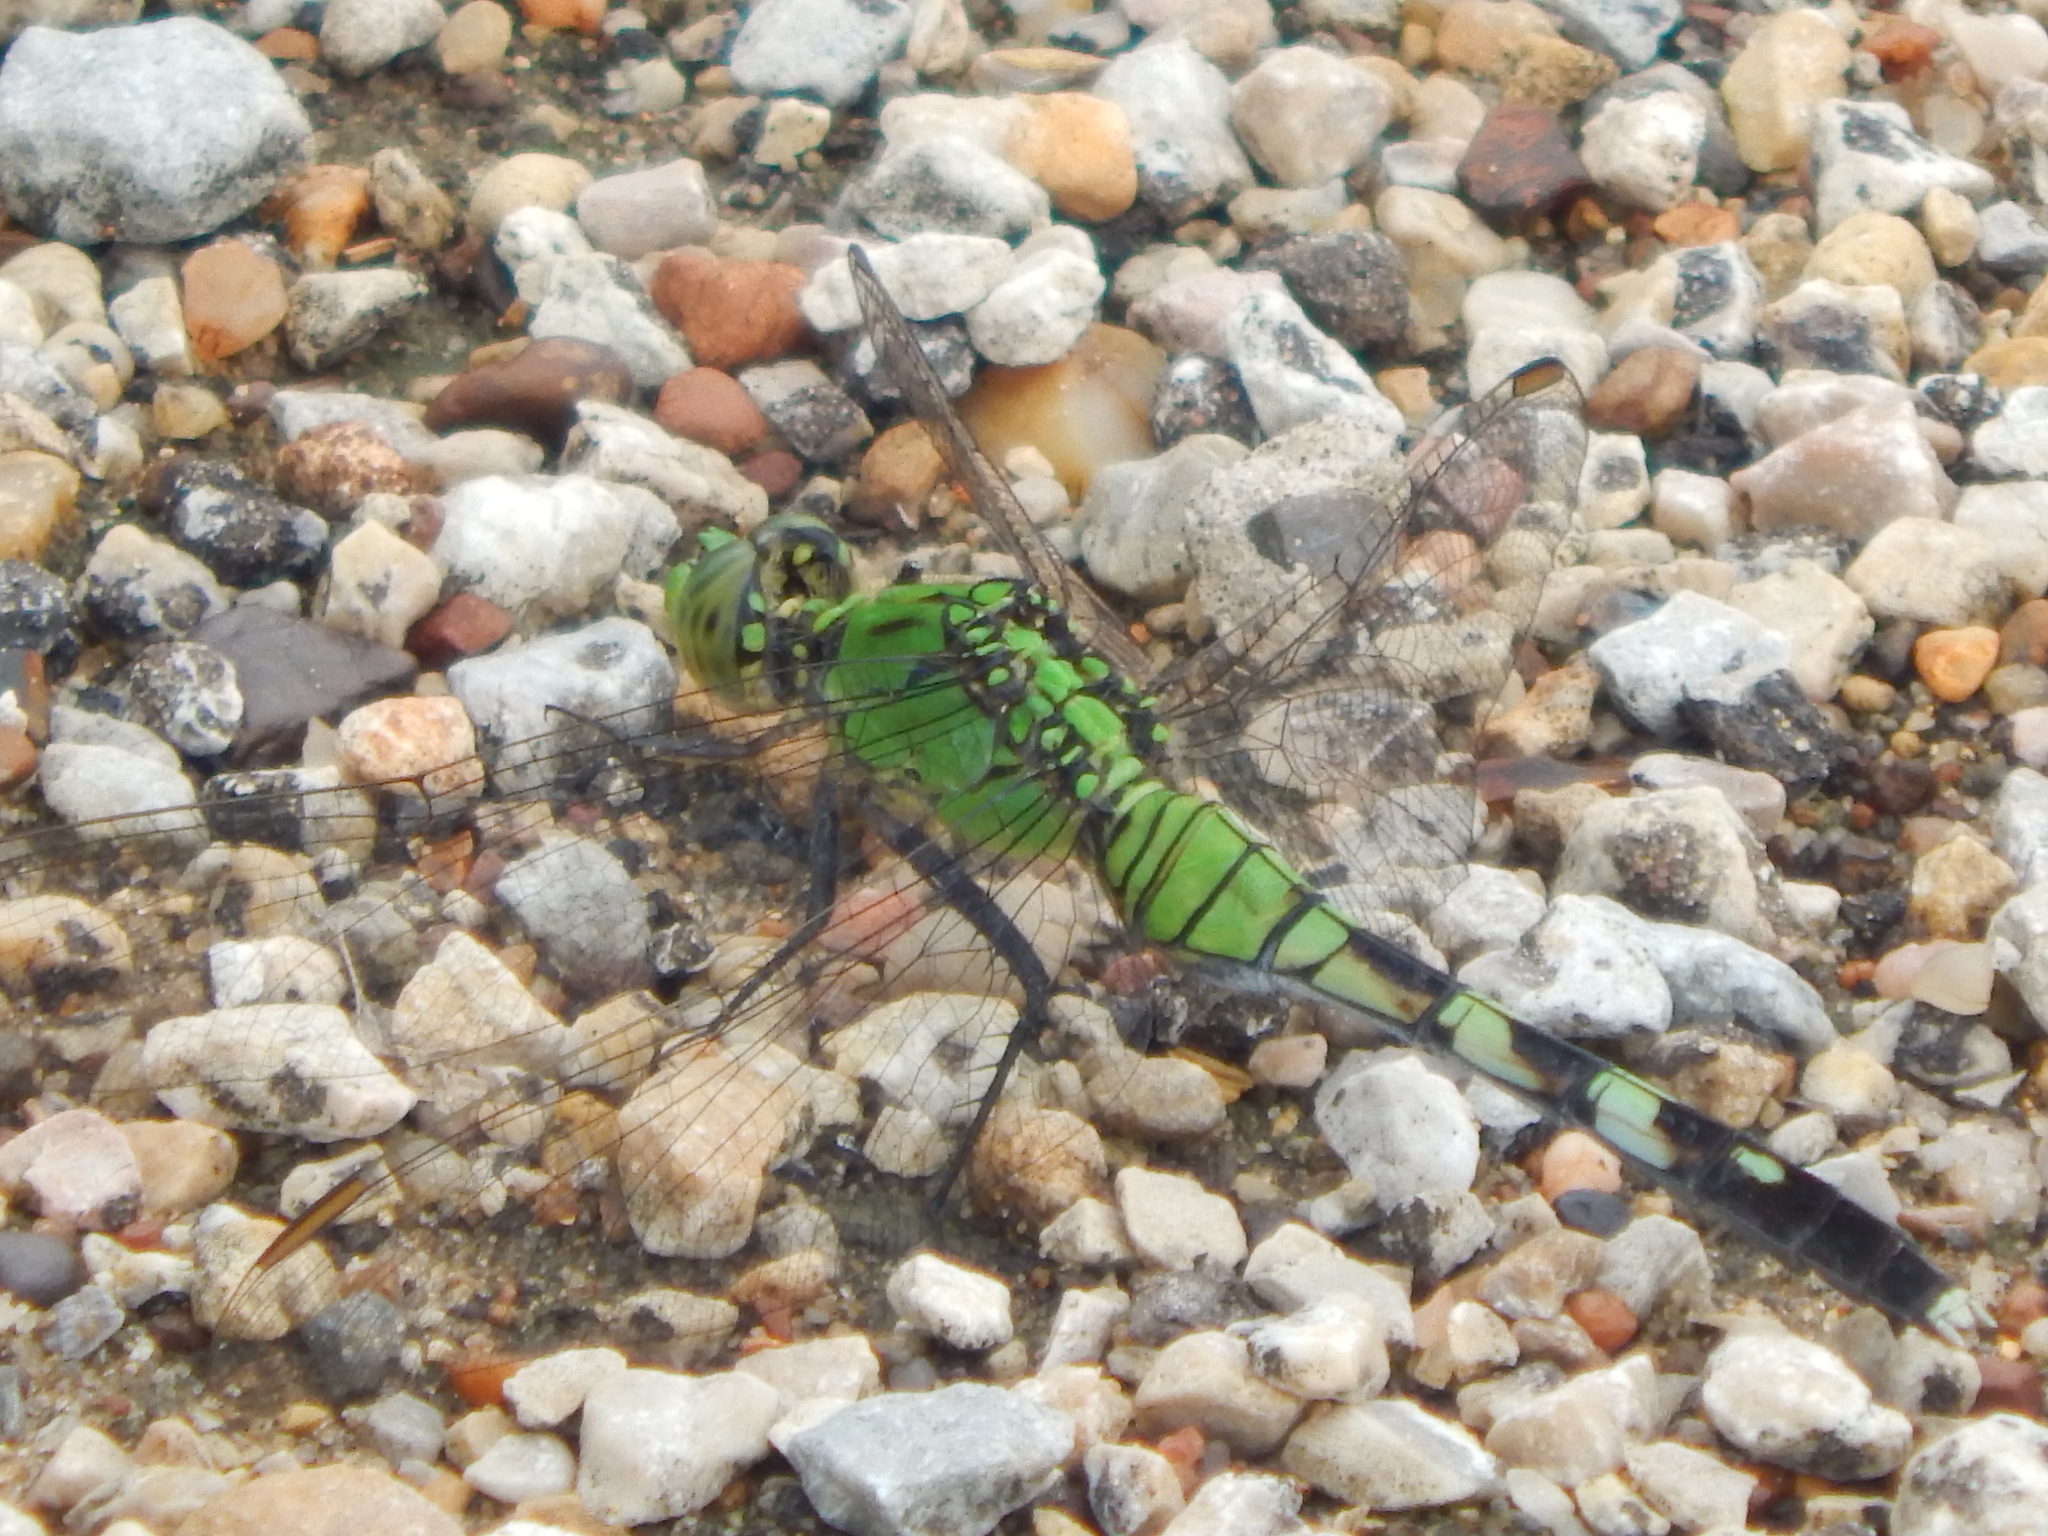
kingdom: Animalia
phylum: Arthropoda
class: Insecta
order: Odonata
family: Libellulidae
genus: Erythemis
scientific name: Erythemis simplicicollis
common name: Eastern pondhawk
